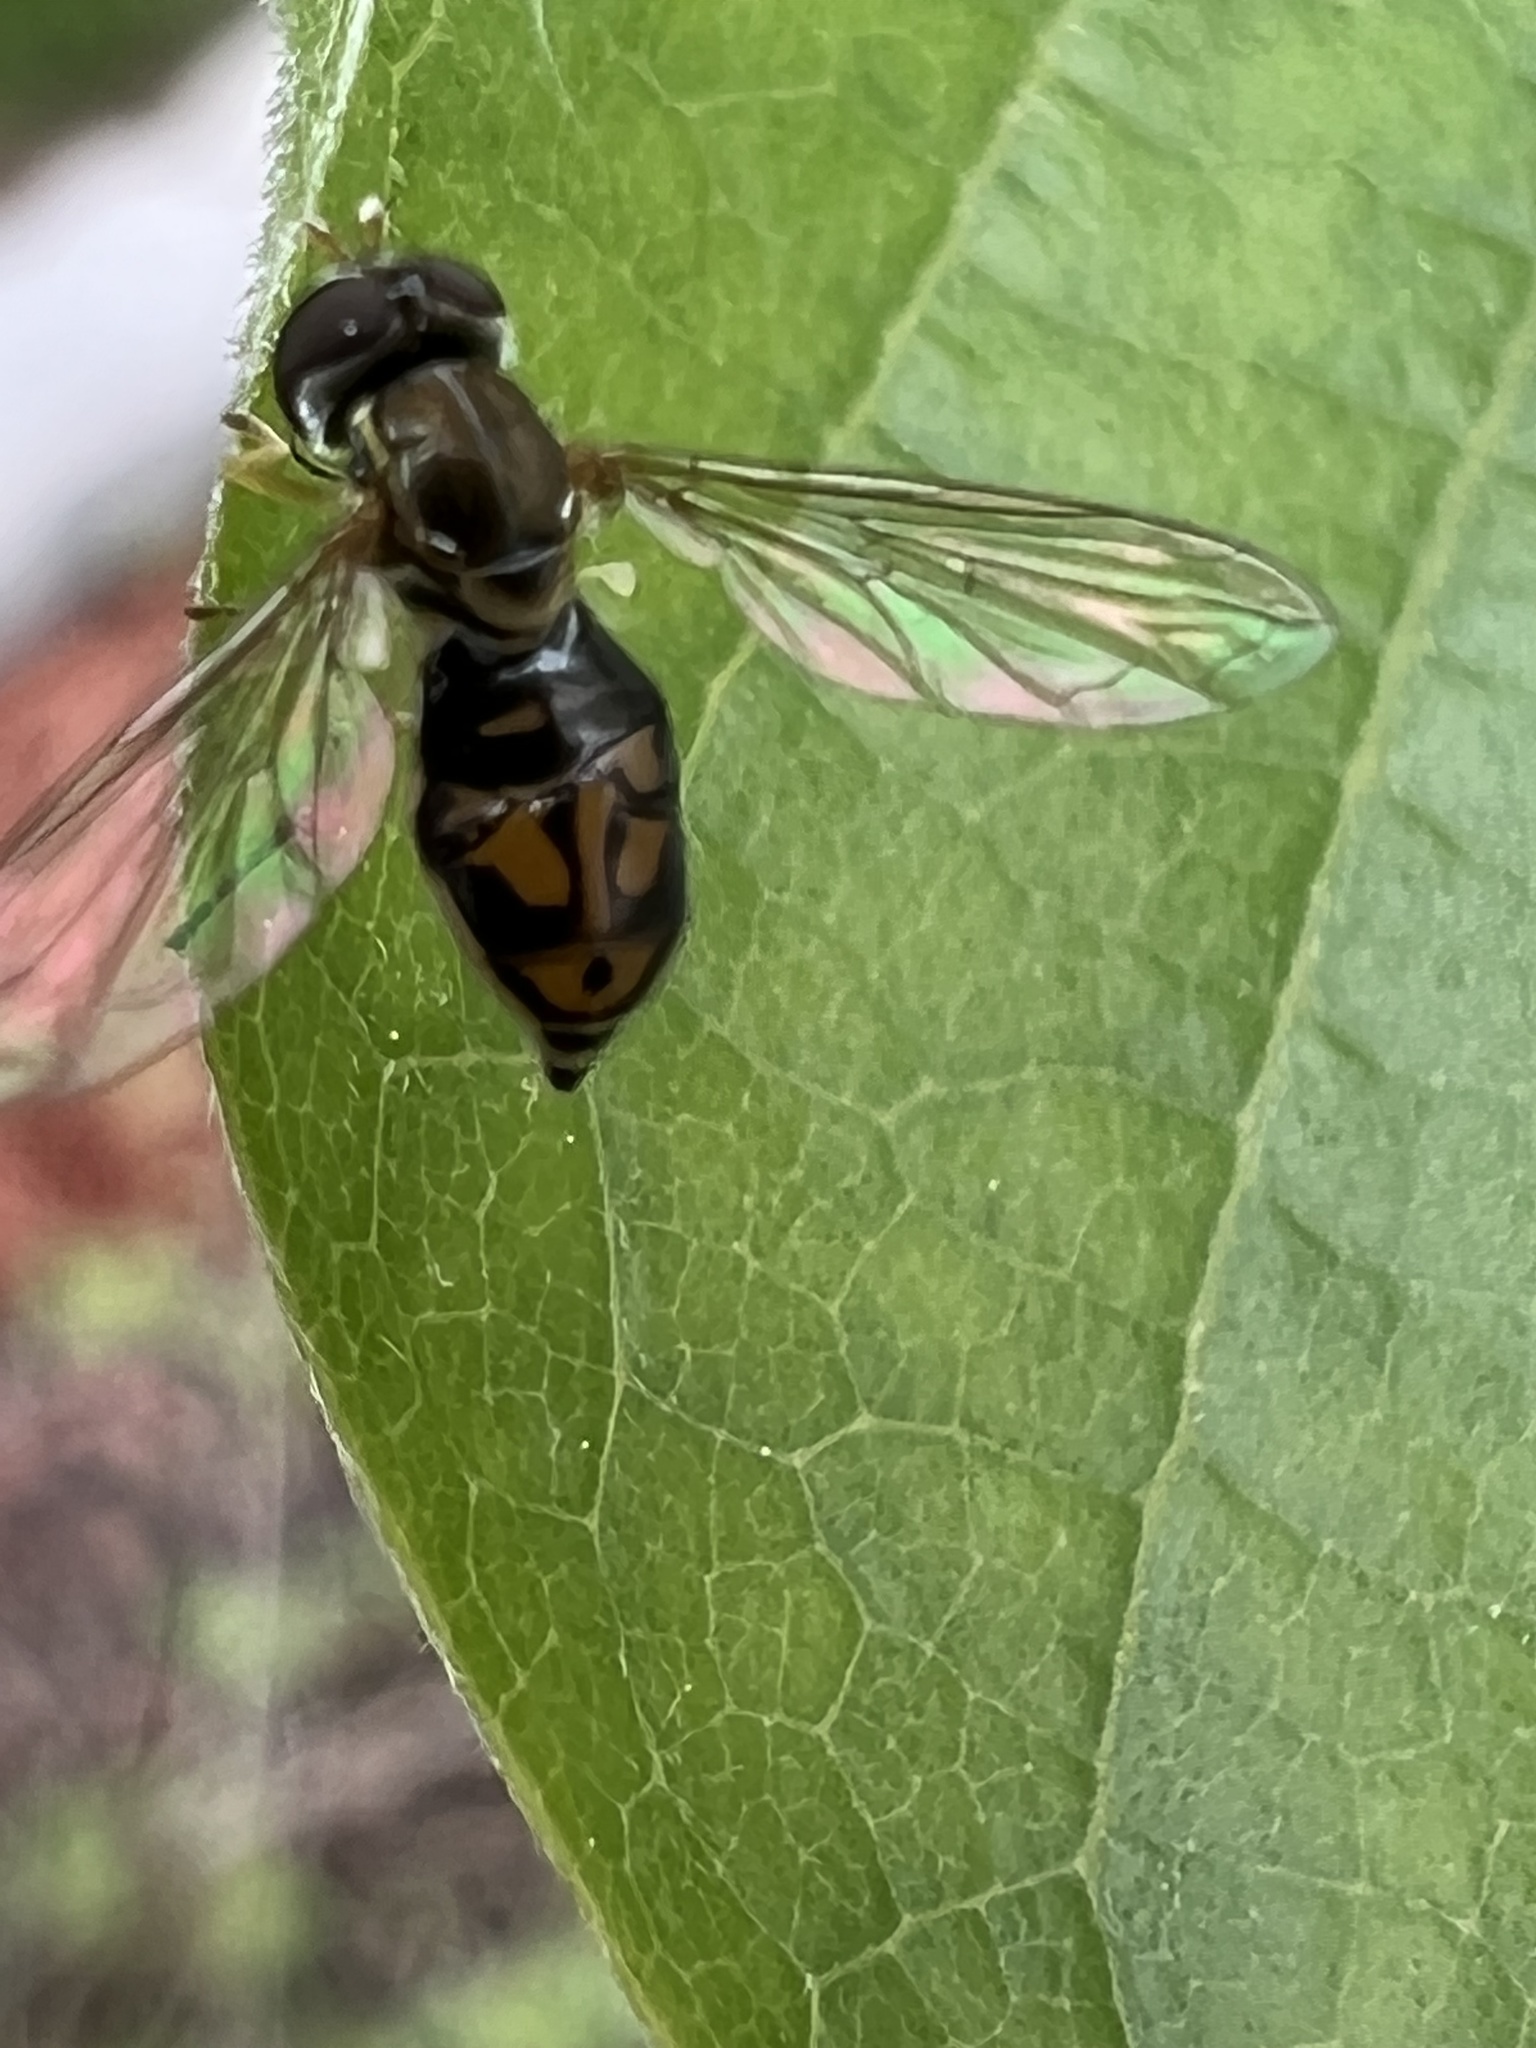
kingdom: Animalia
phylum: Arthropoda
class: Insecta
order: Diptera
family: Syrphidae
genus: Toxomerus
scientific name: Toxomerus marginatus
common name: Syrphid fly
